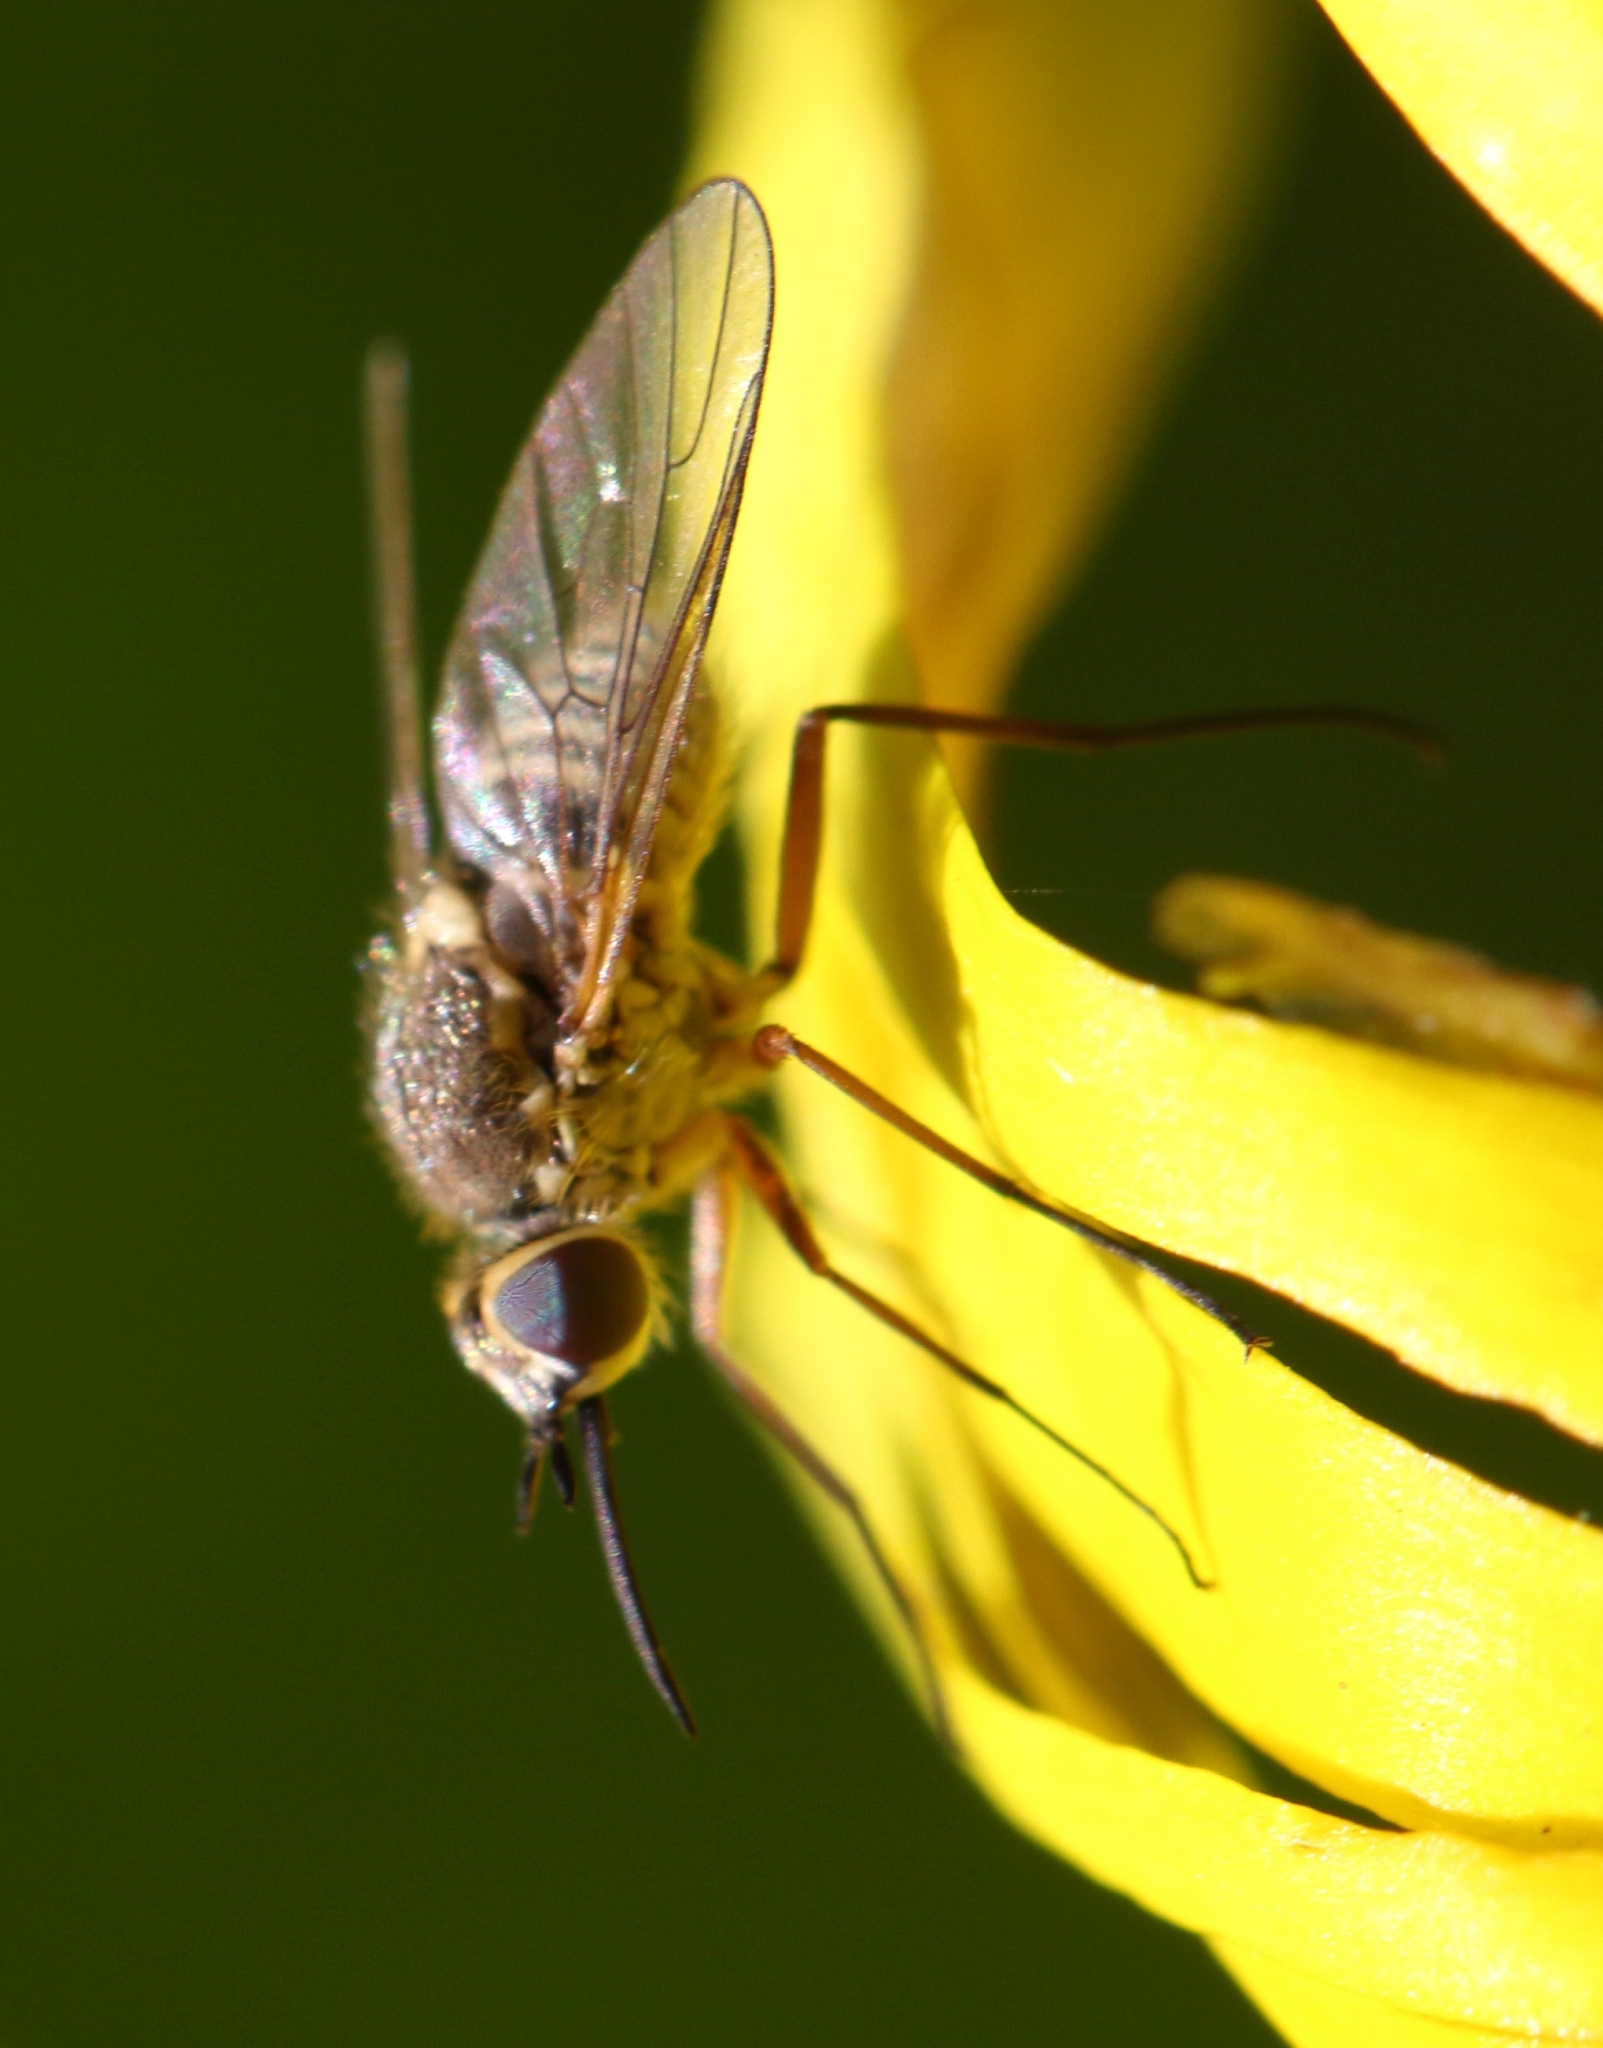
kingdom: Animalia
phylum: Arthropoda
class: Insecta
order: Diptera
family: Bombyliidae
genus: Phthiria
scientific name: Phthiria laeta
